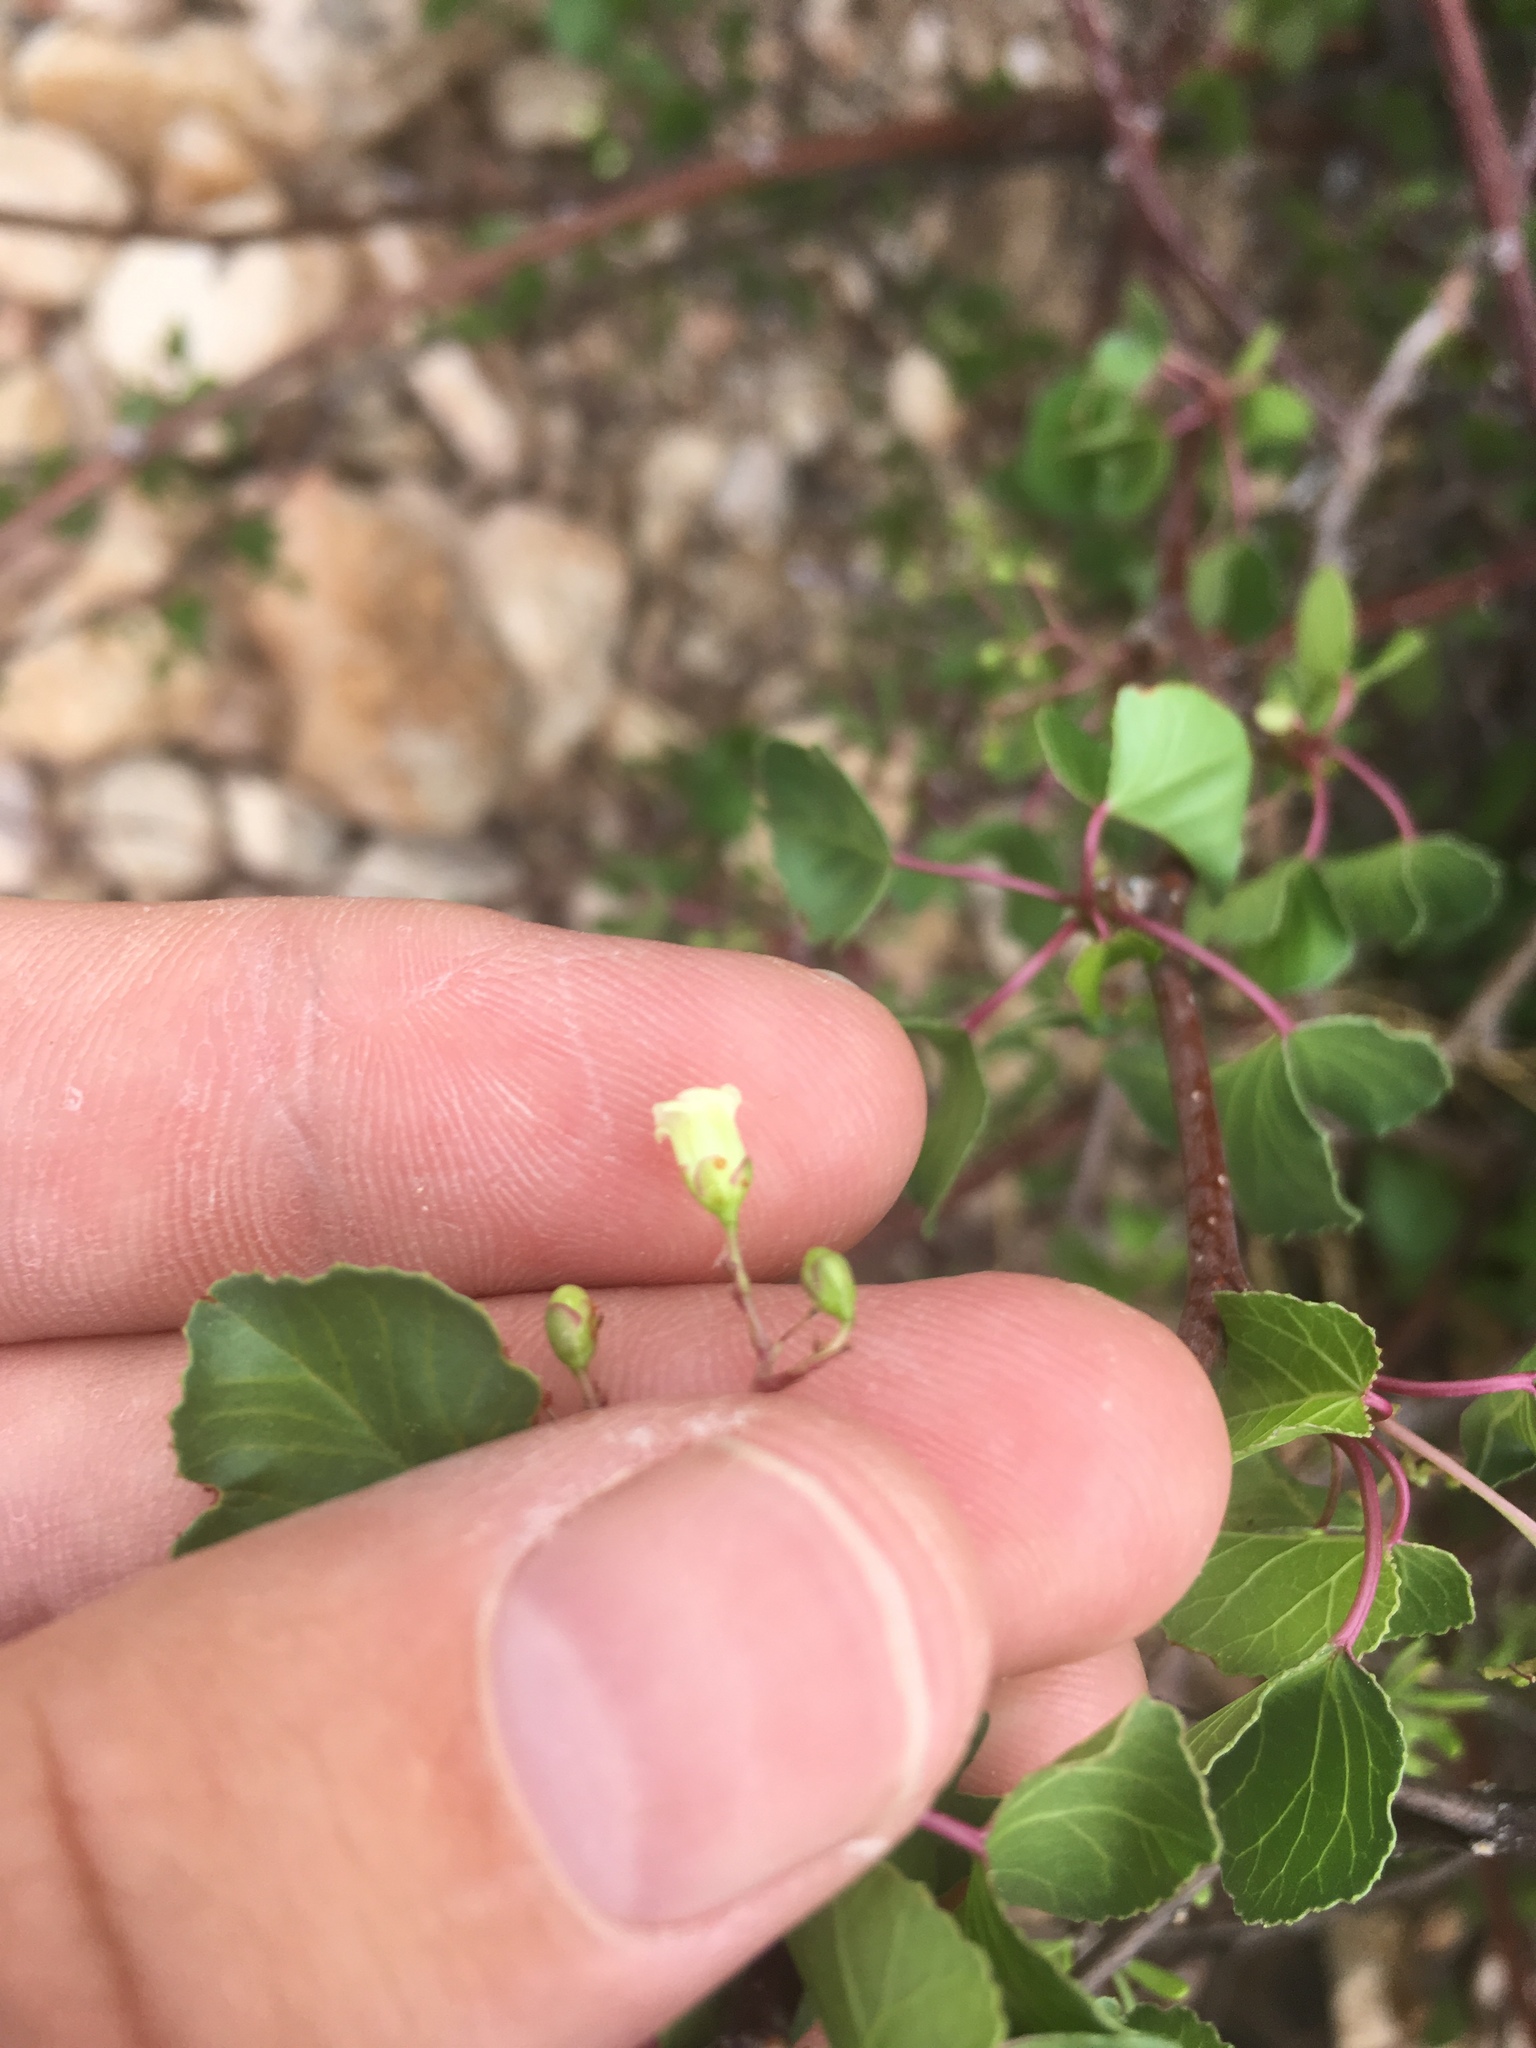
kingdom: Plantae
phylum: Tracheophyta
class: Magnoliopsida
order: Malpighiales
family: Euphorbiaceae
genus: Jatropha
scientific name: Jatropha cardiophylla
